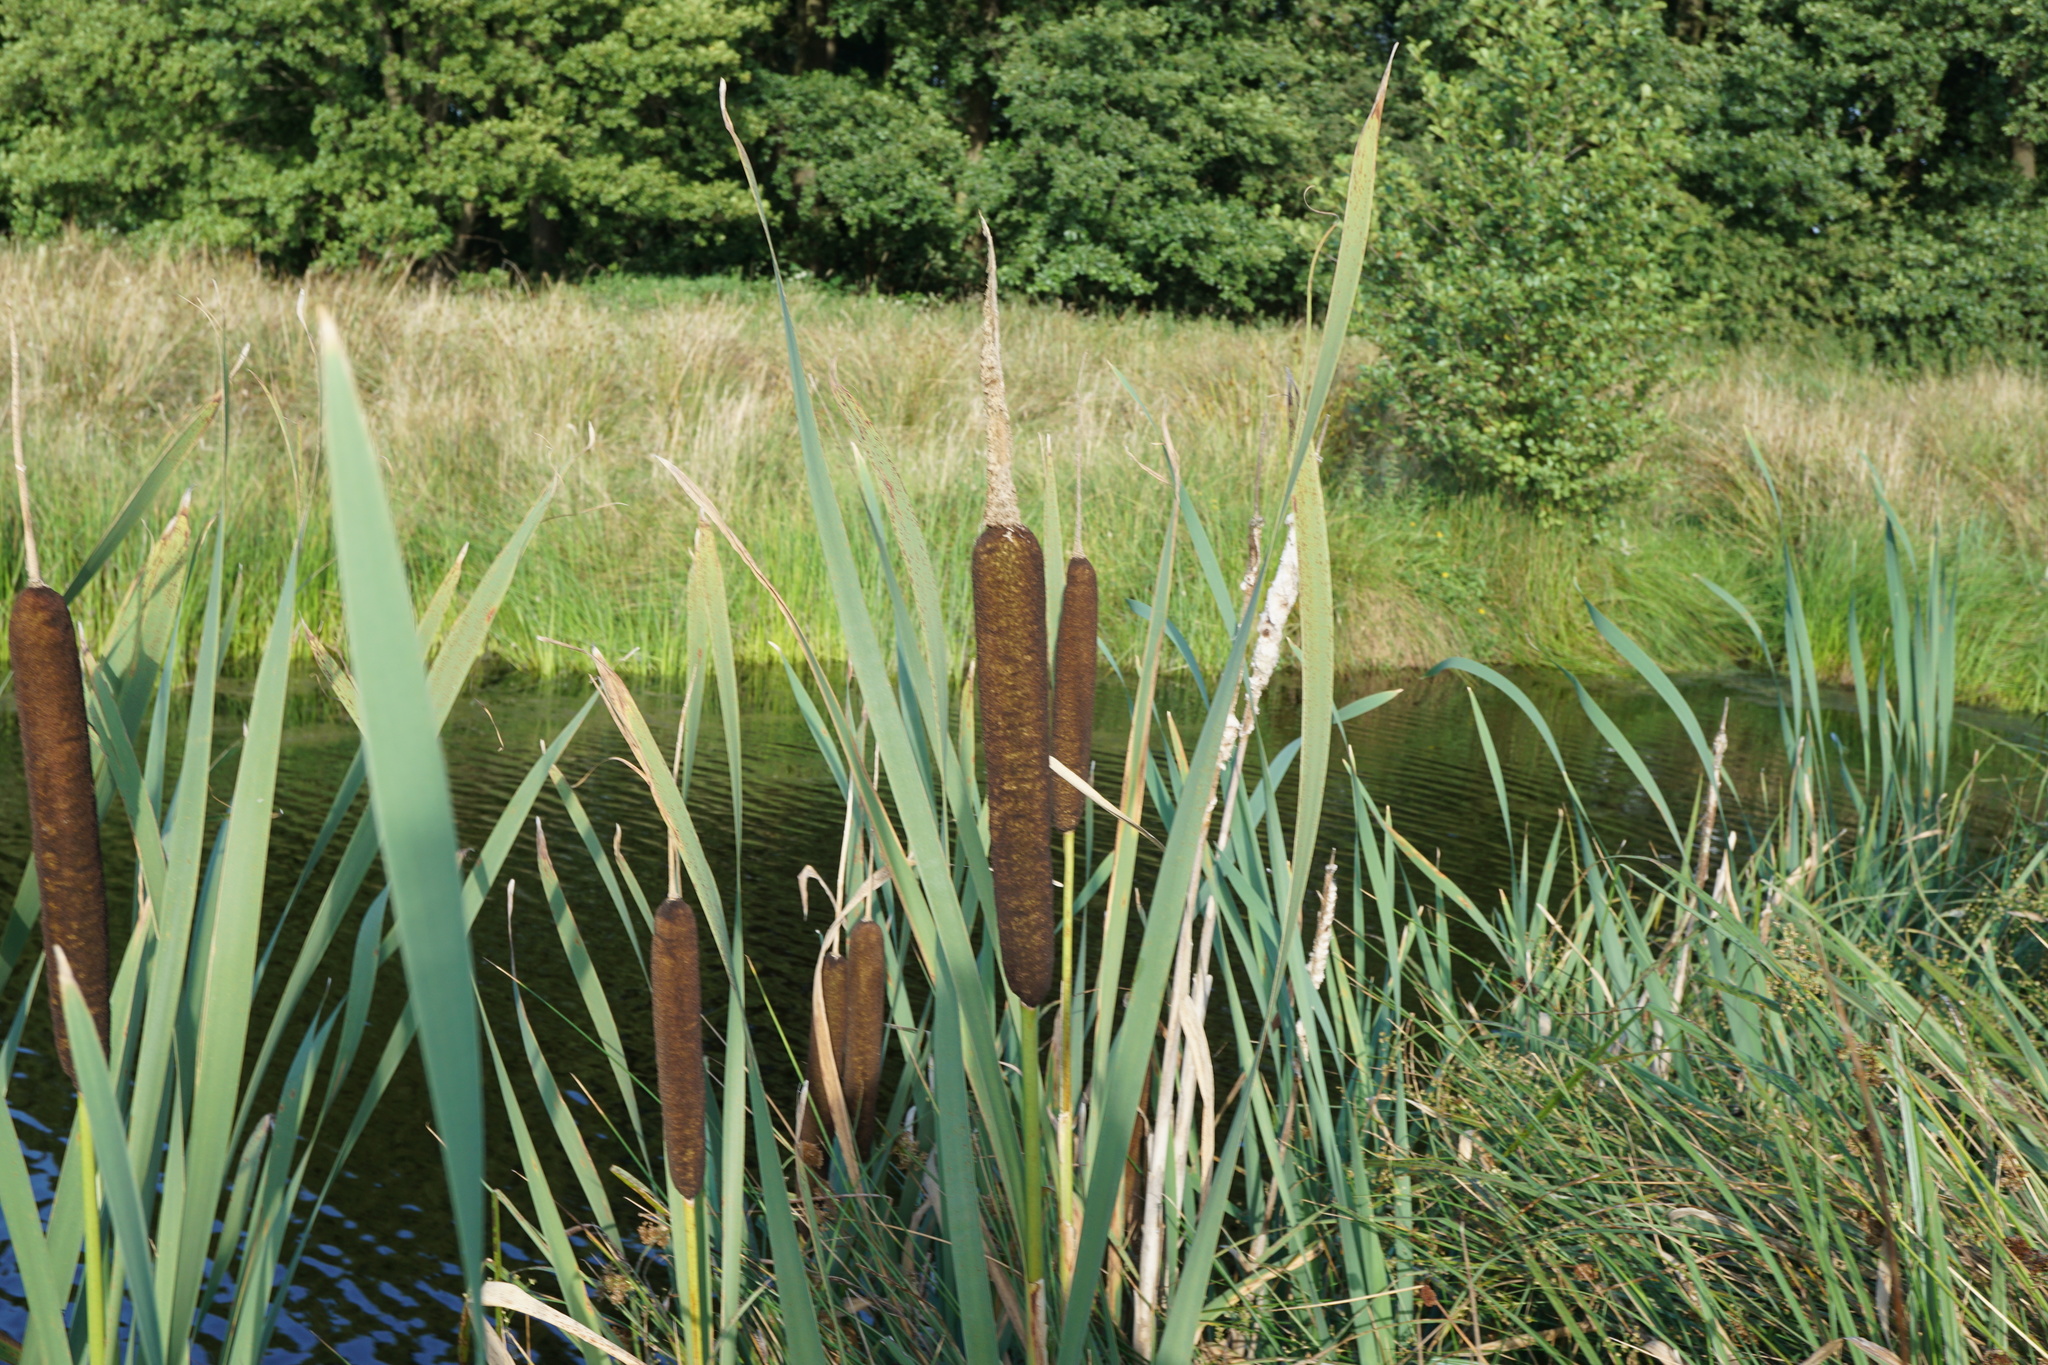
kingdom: Plantae
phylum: Tracheophyta
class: Liliopsida
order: Poales
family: Typhaceae
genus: Typha
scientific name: Typha latifolia
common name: Broadleaf cattail
